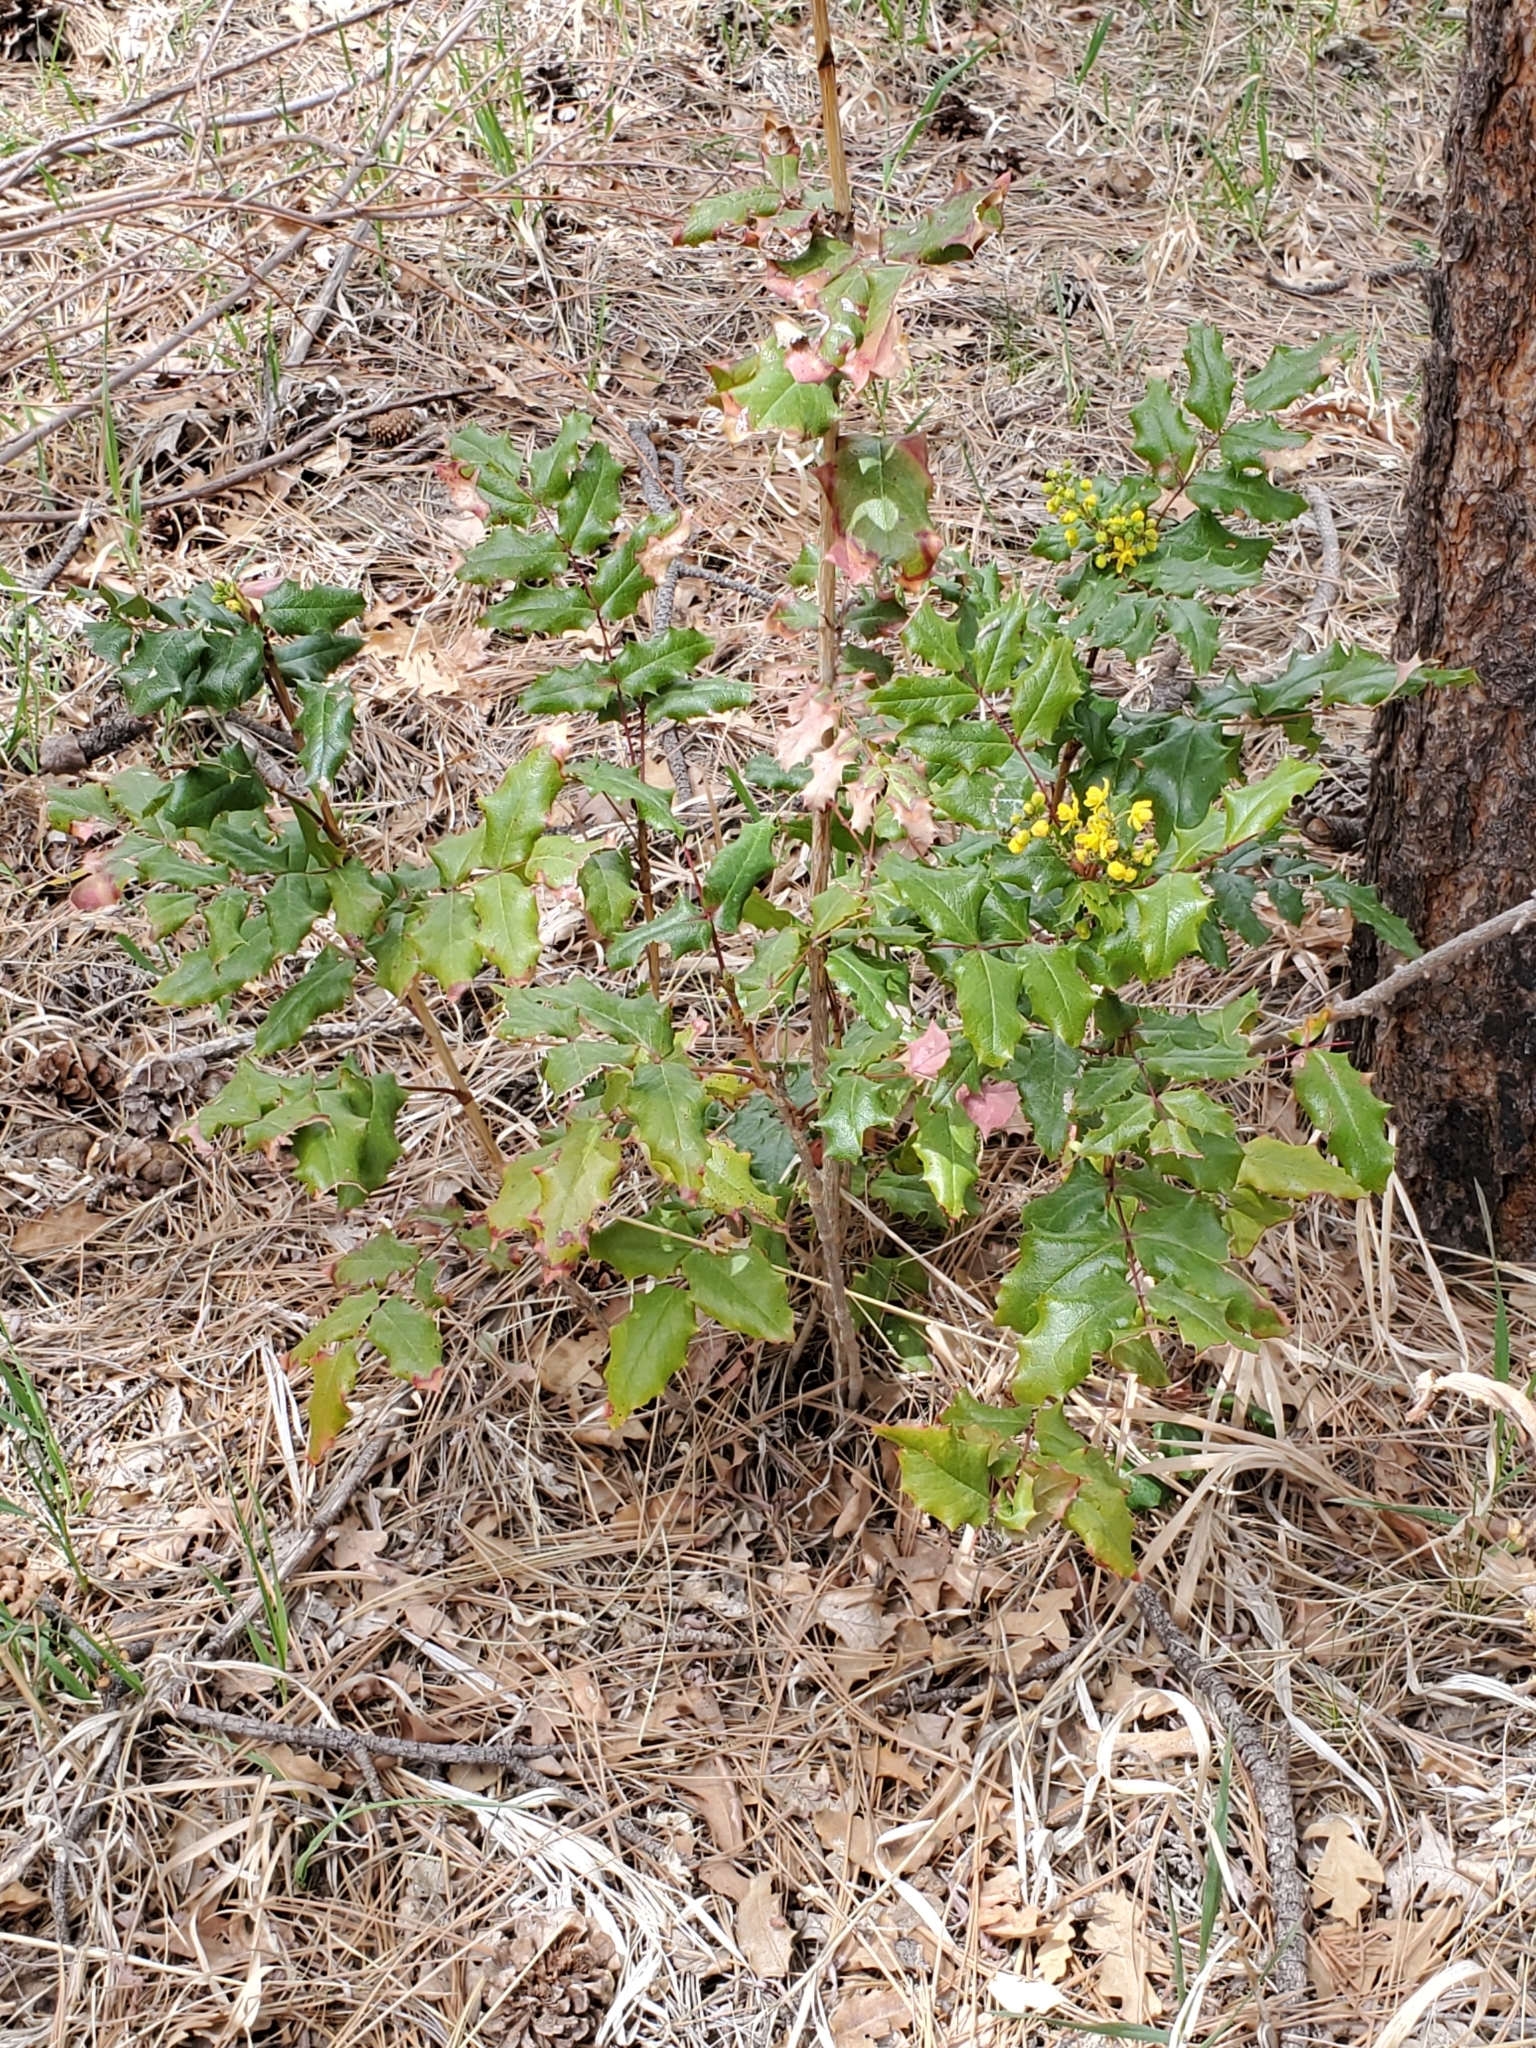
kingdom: Plantae
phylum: Tracheophyta
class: Magnoliopsida
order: Ranunculales
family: Berberidaceae
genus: Mahonia
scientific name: Mahonia aquifolium
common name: Oregon-grape
